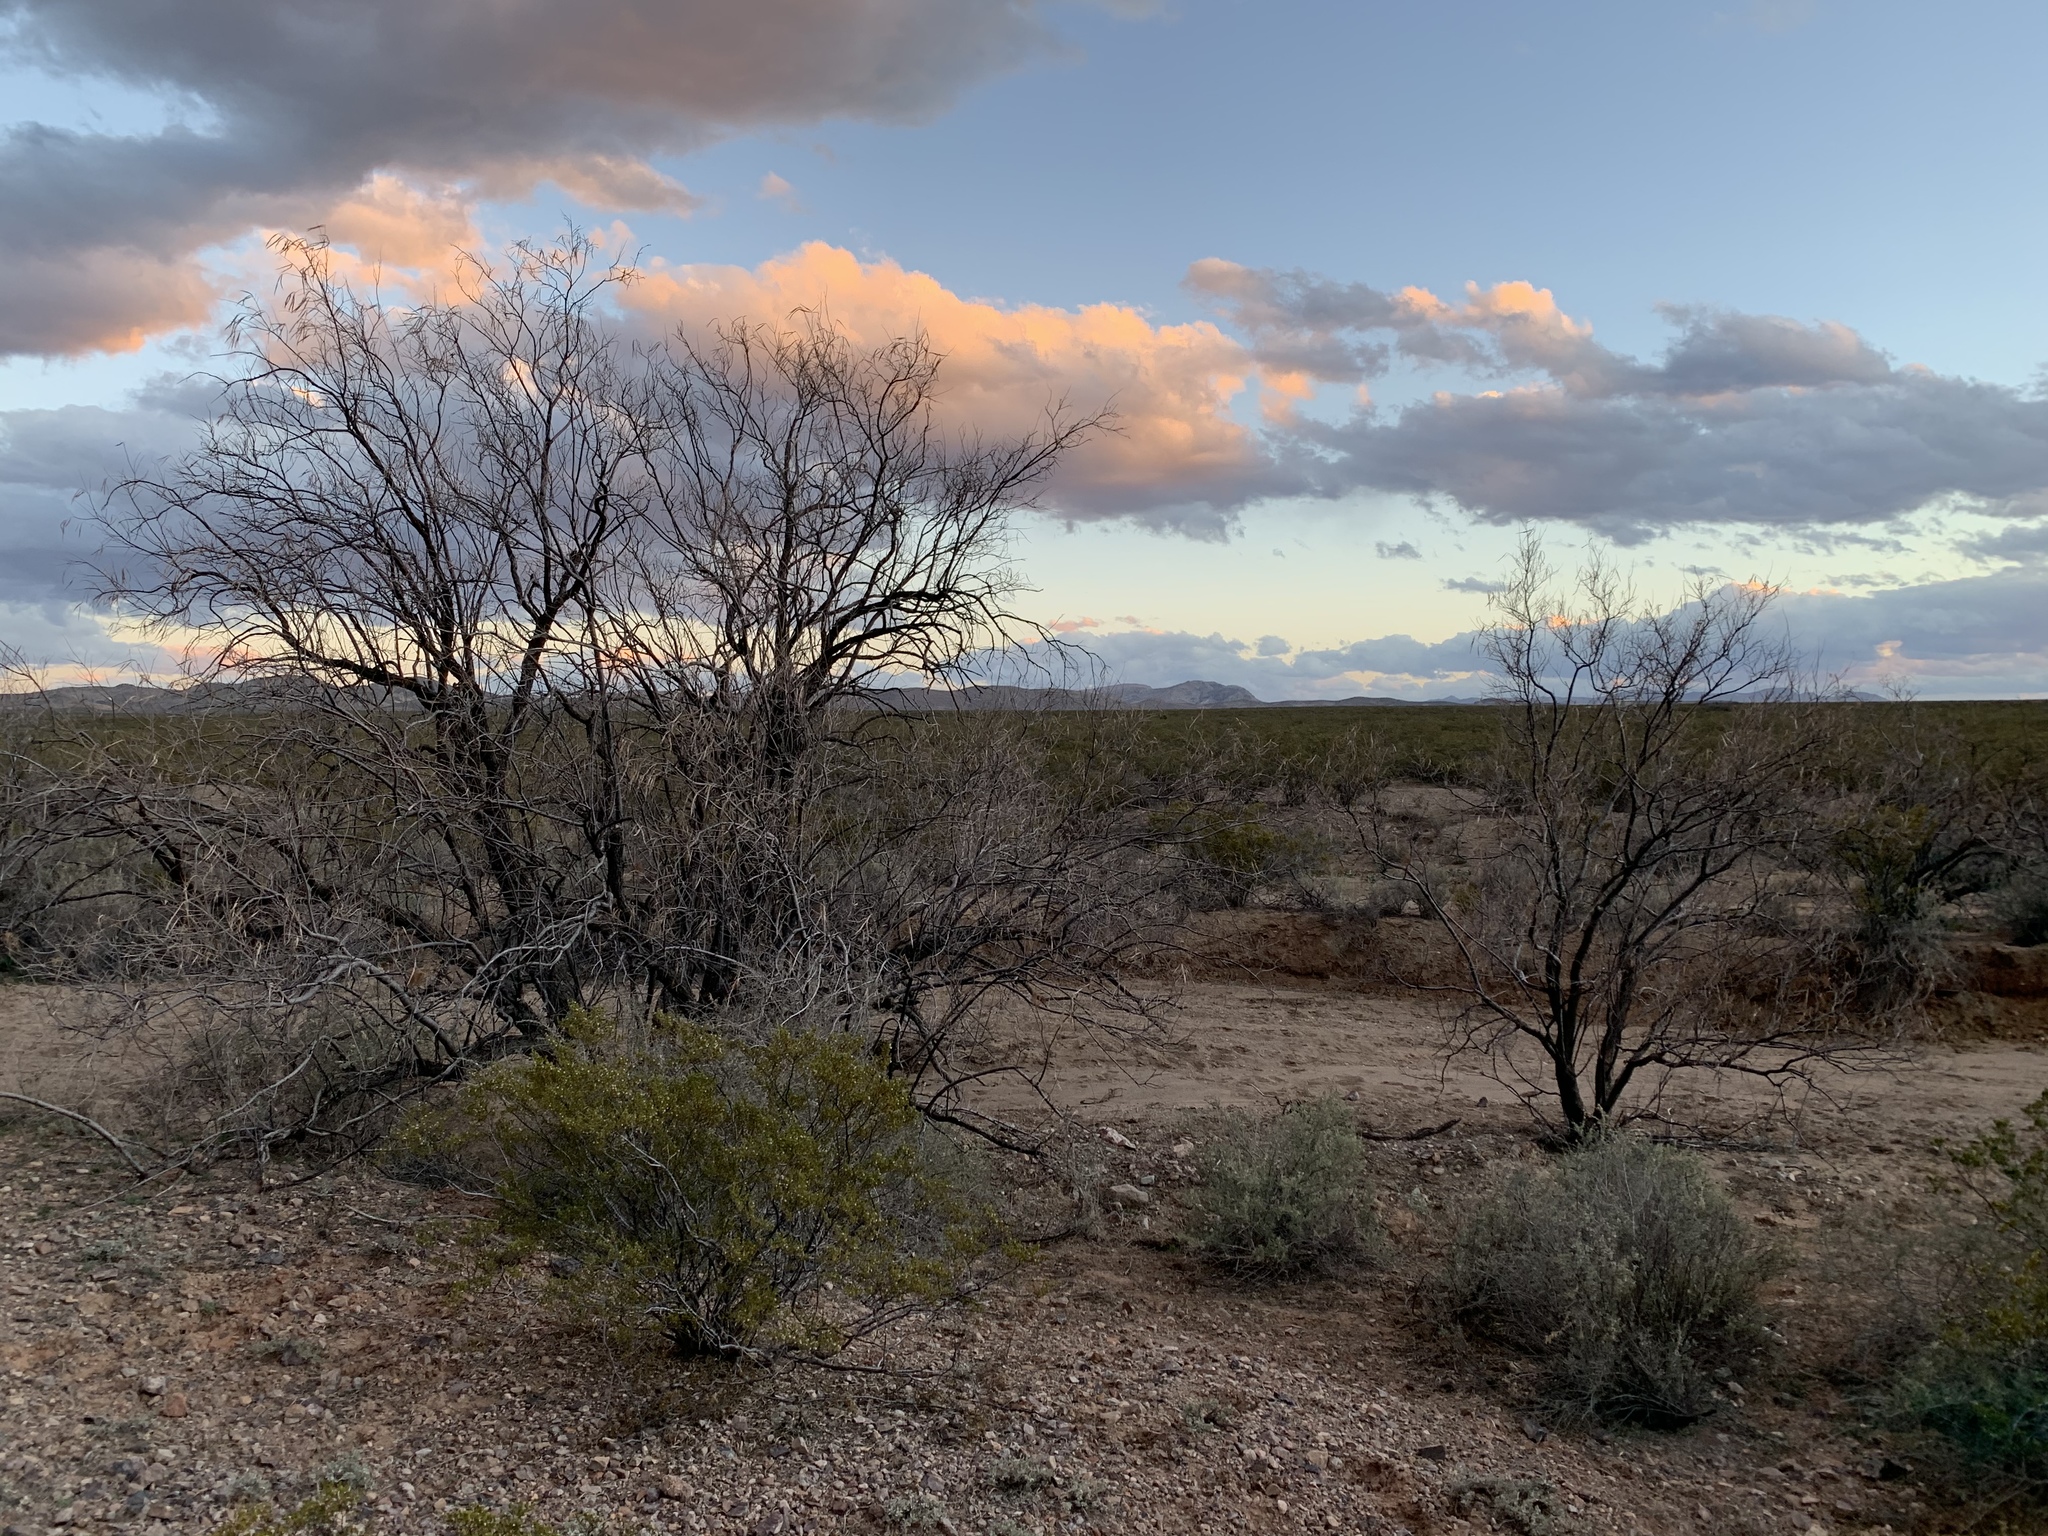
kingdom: Plantae
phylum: Tracheophyta
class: Magnoliopsida
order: Lamiales
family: Bignoniaceae
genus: Chilopsis
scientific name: Chilopsis linearis
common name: Desert-willow
